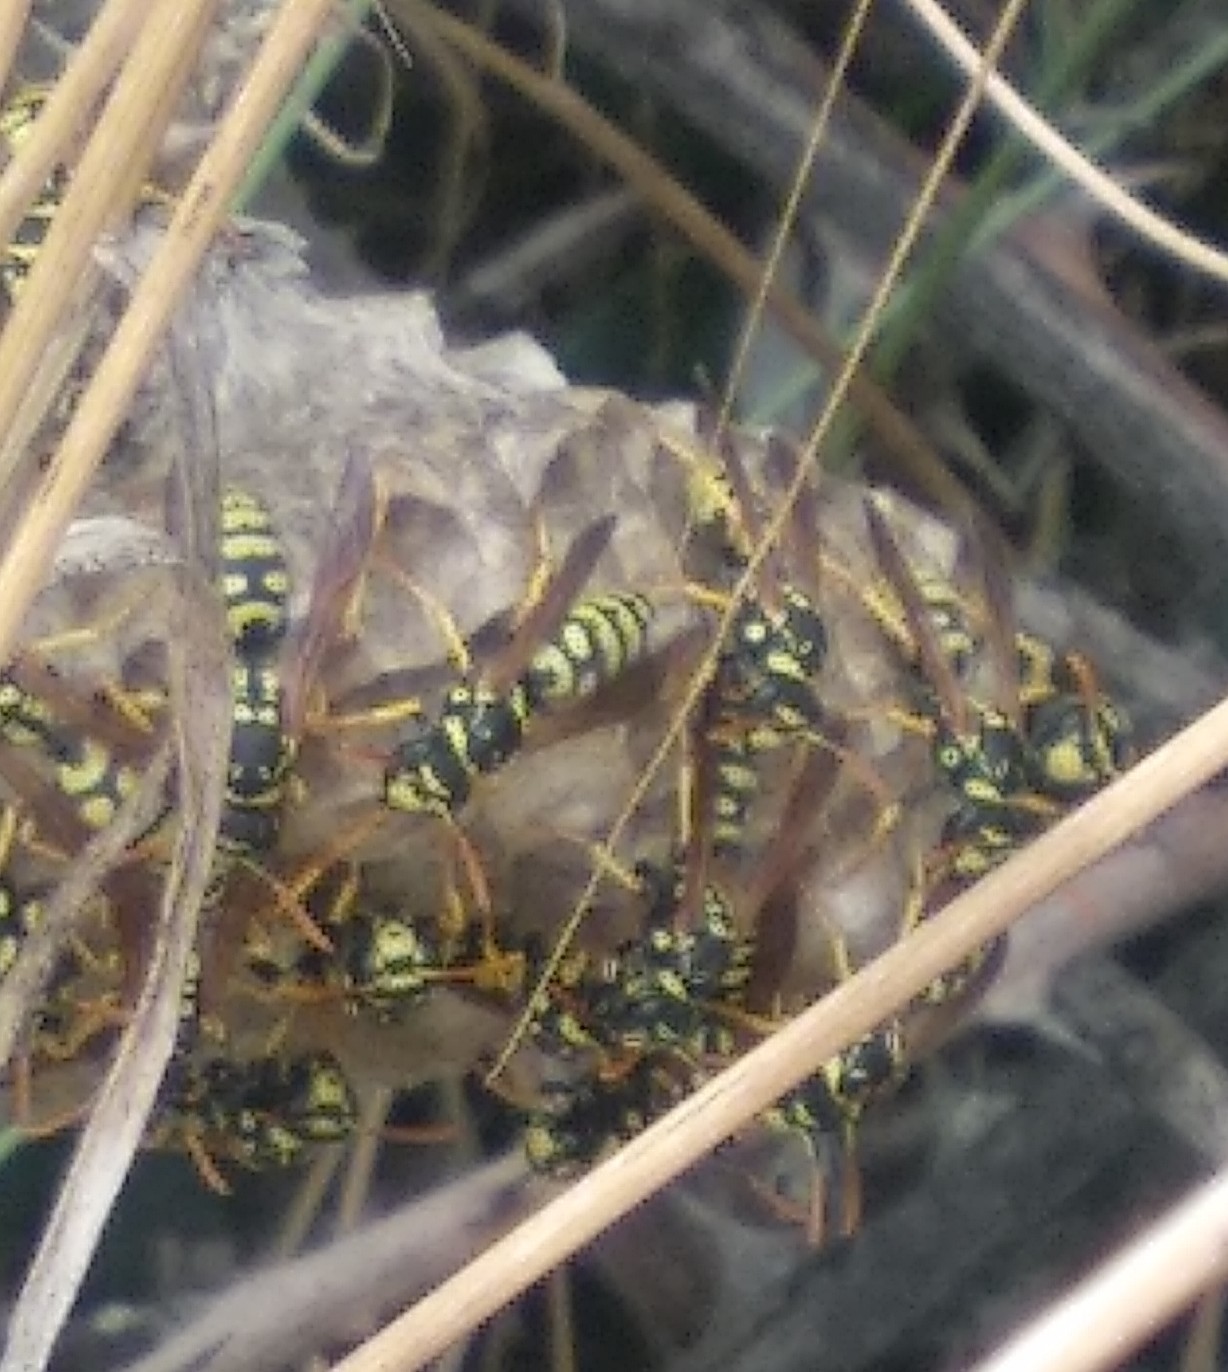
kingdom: Animalia
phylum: Arthropoda
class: Insecta
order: Hymenoptera
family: Eumenidae
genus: Polistes
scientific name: Polistes gallicus
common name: Paper wasp
